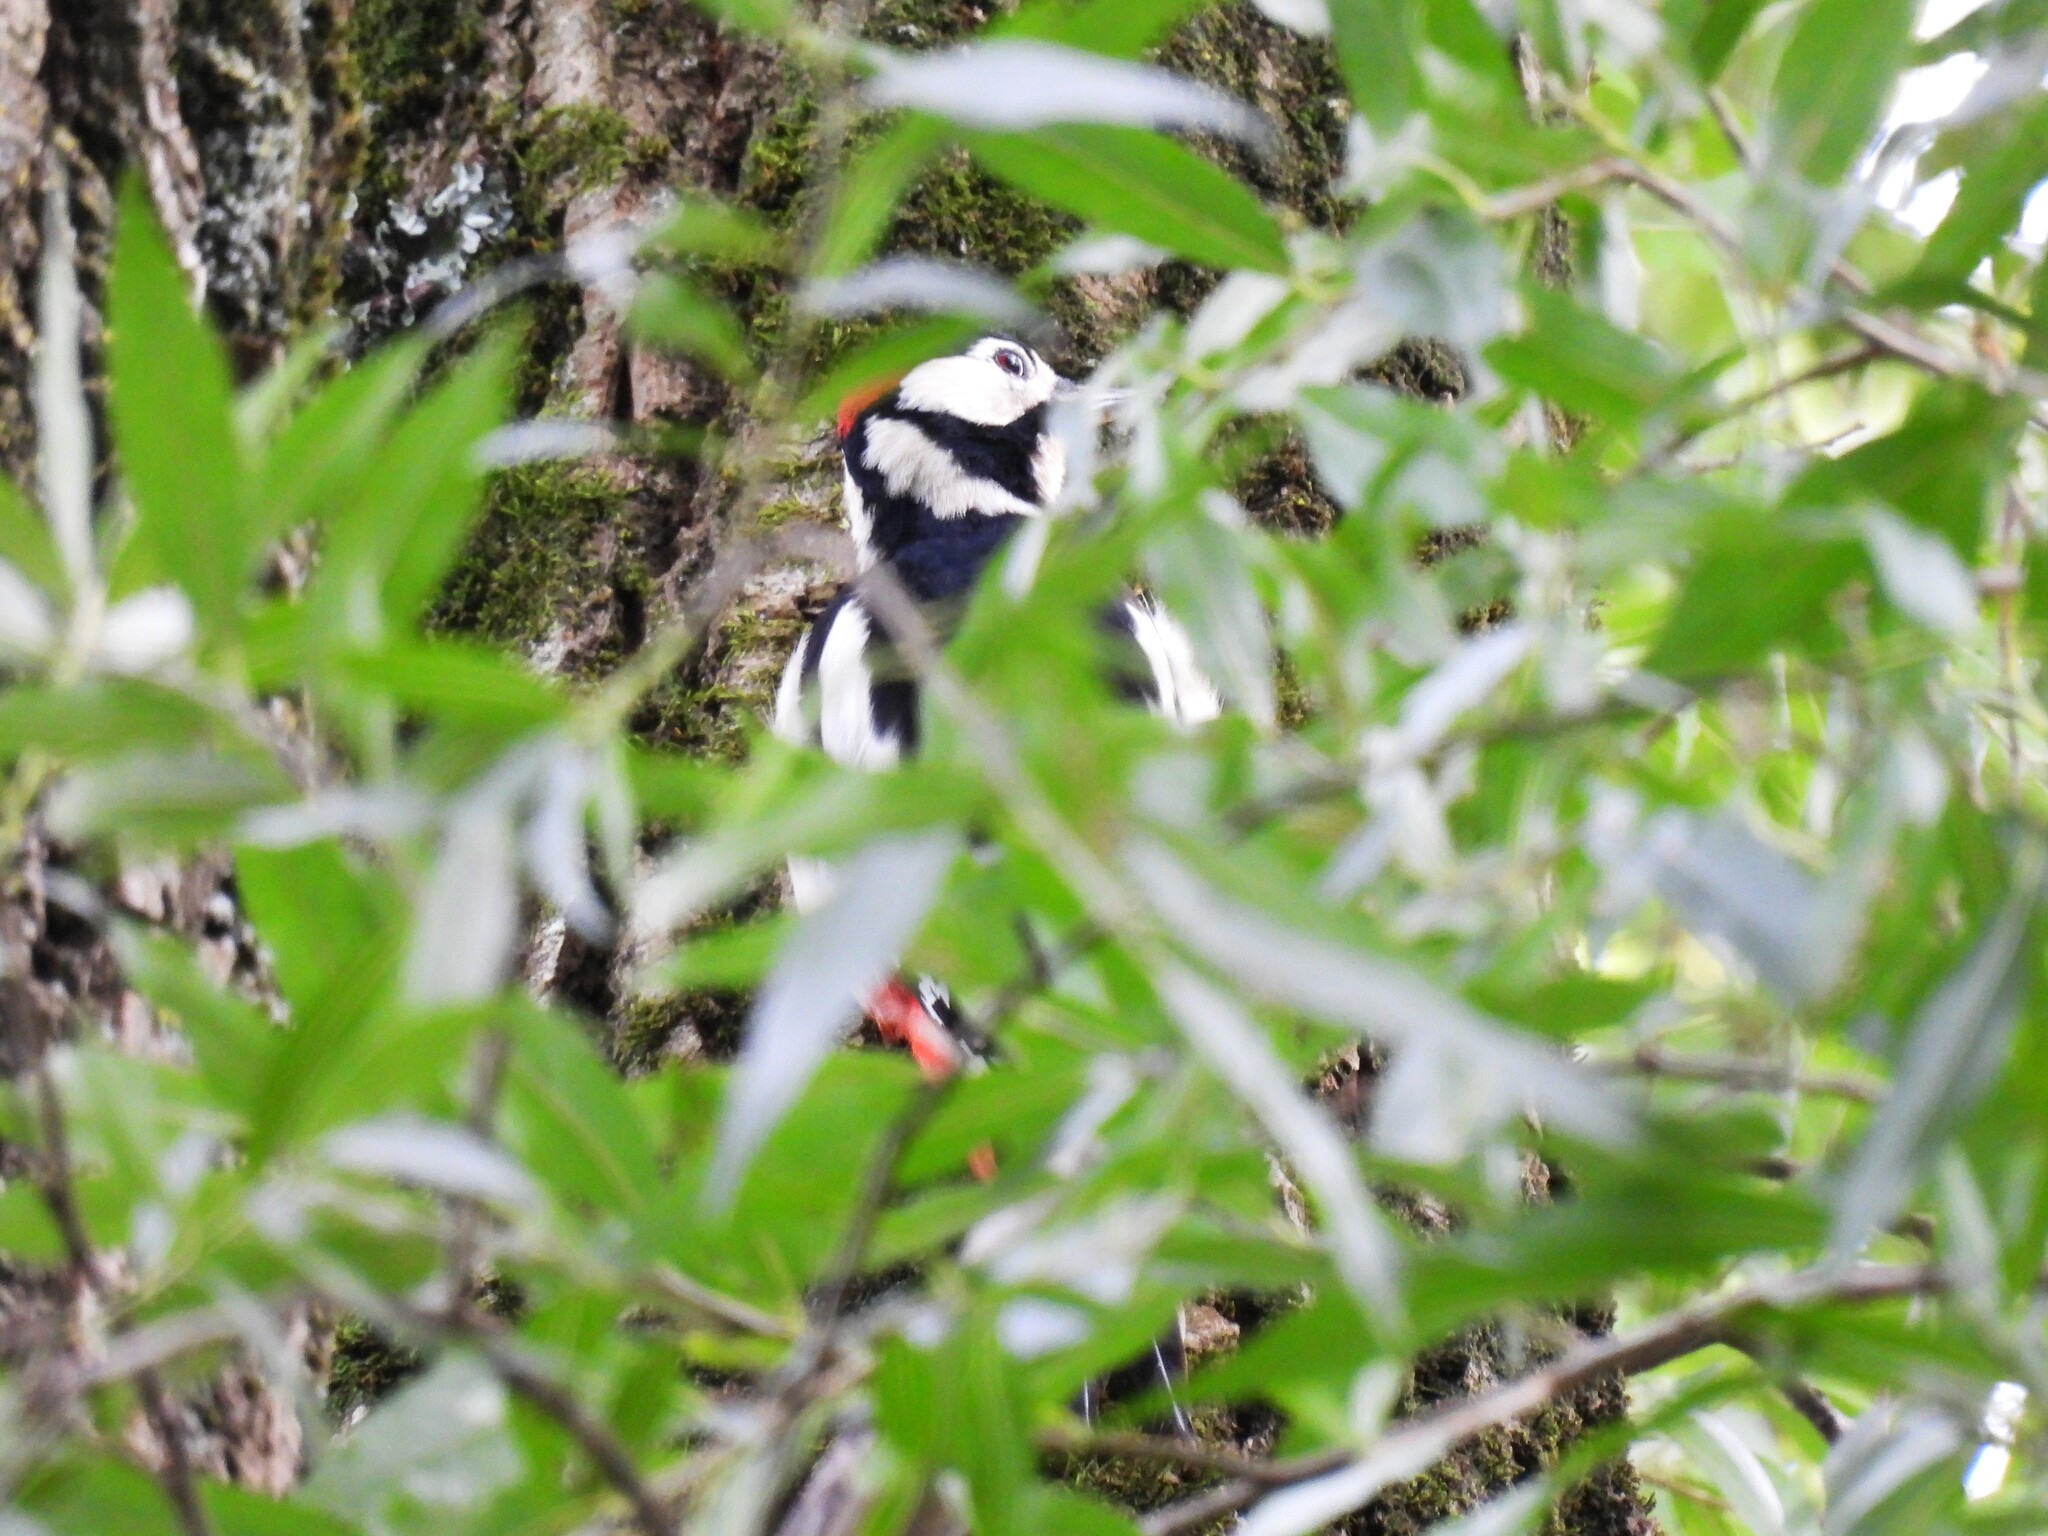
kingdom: Animalia
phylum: Chordata
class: Aves
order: Piciformes
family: Picidae
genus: Dendrocopos
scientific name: Dendrocopos major
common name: Great spotted woodpecker
